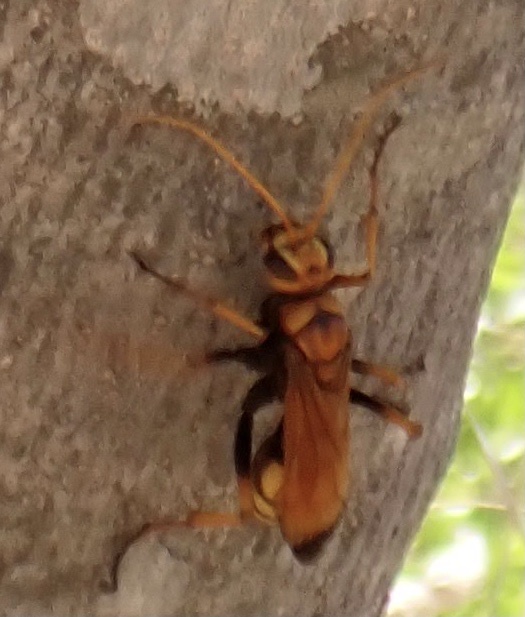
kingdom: Animalia
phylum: Arthropoda
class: Insecta
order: Hymenoptera
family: Pompilidae
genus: Cryptocheilus
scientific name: Cryptocheilus alternatus
